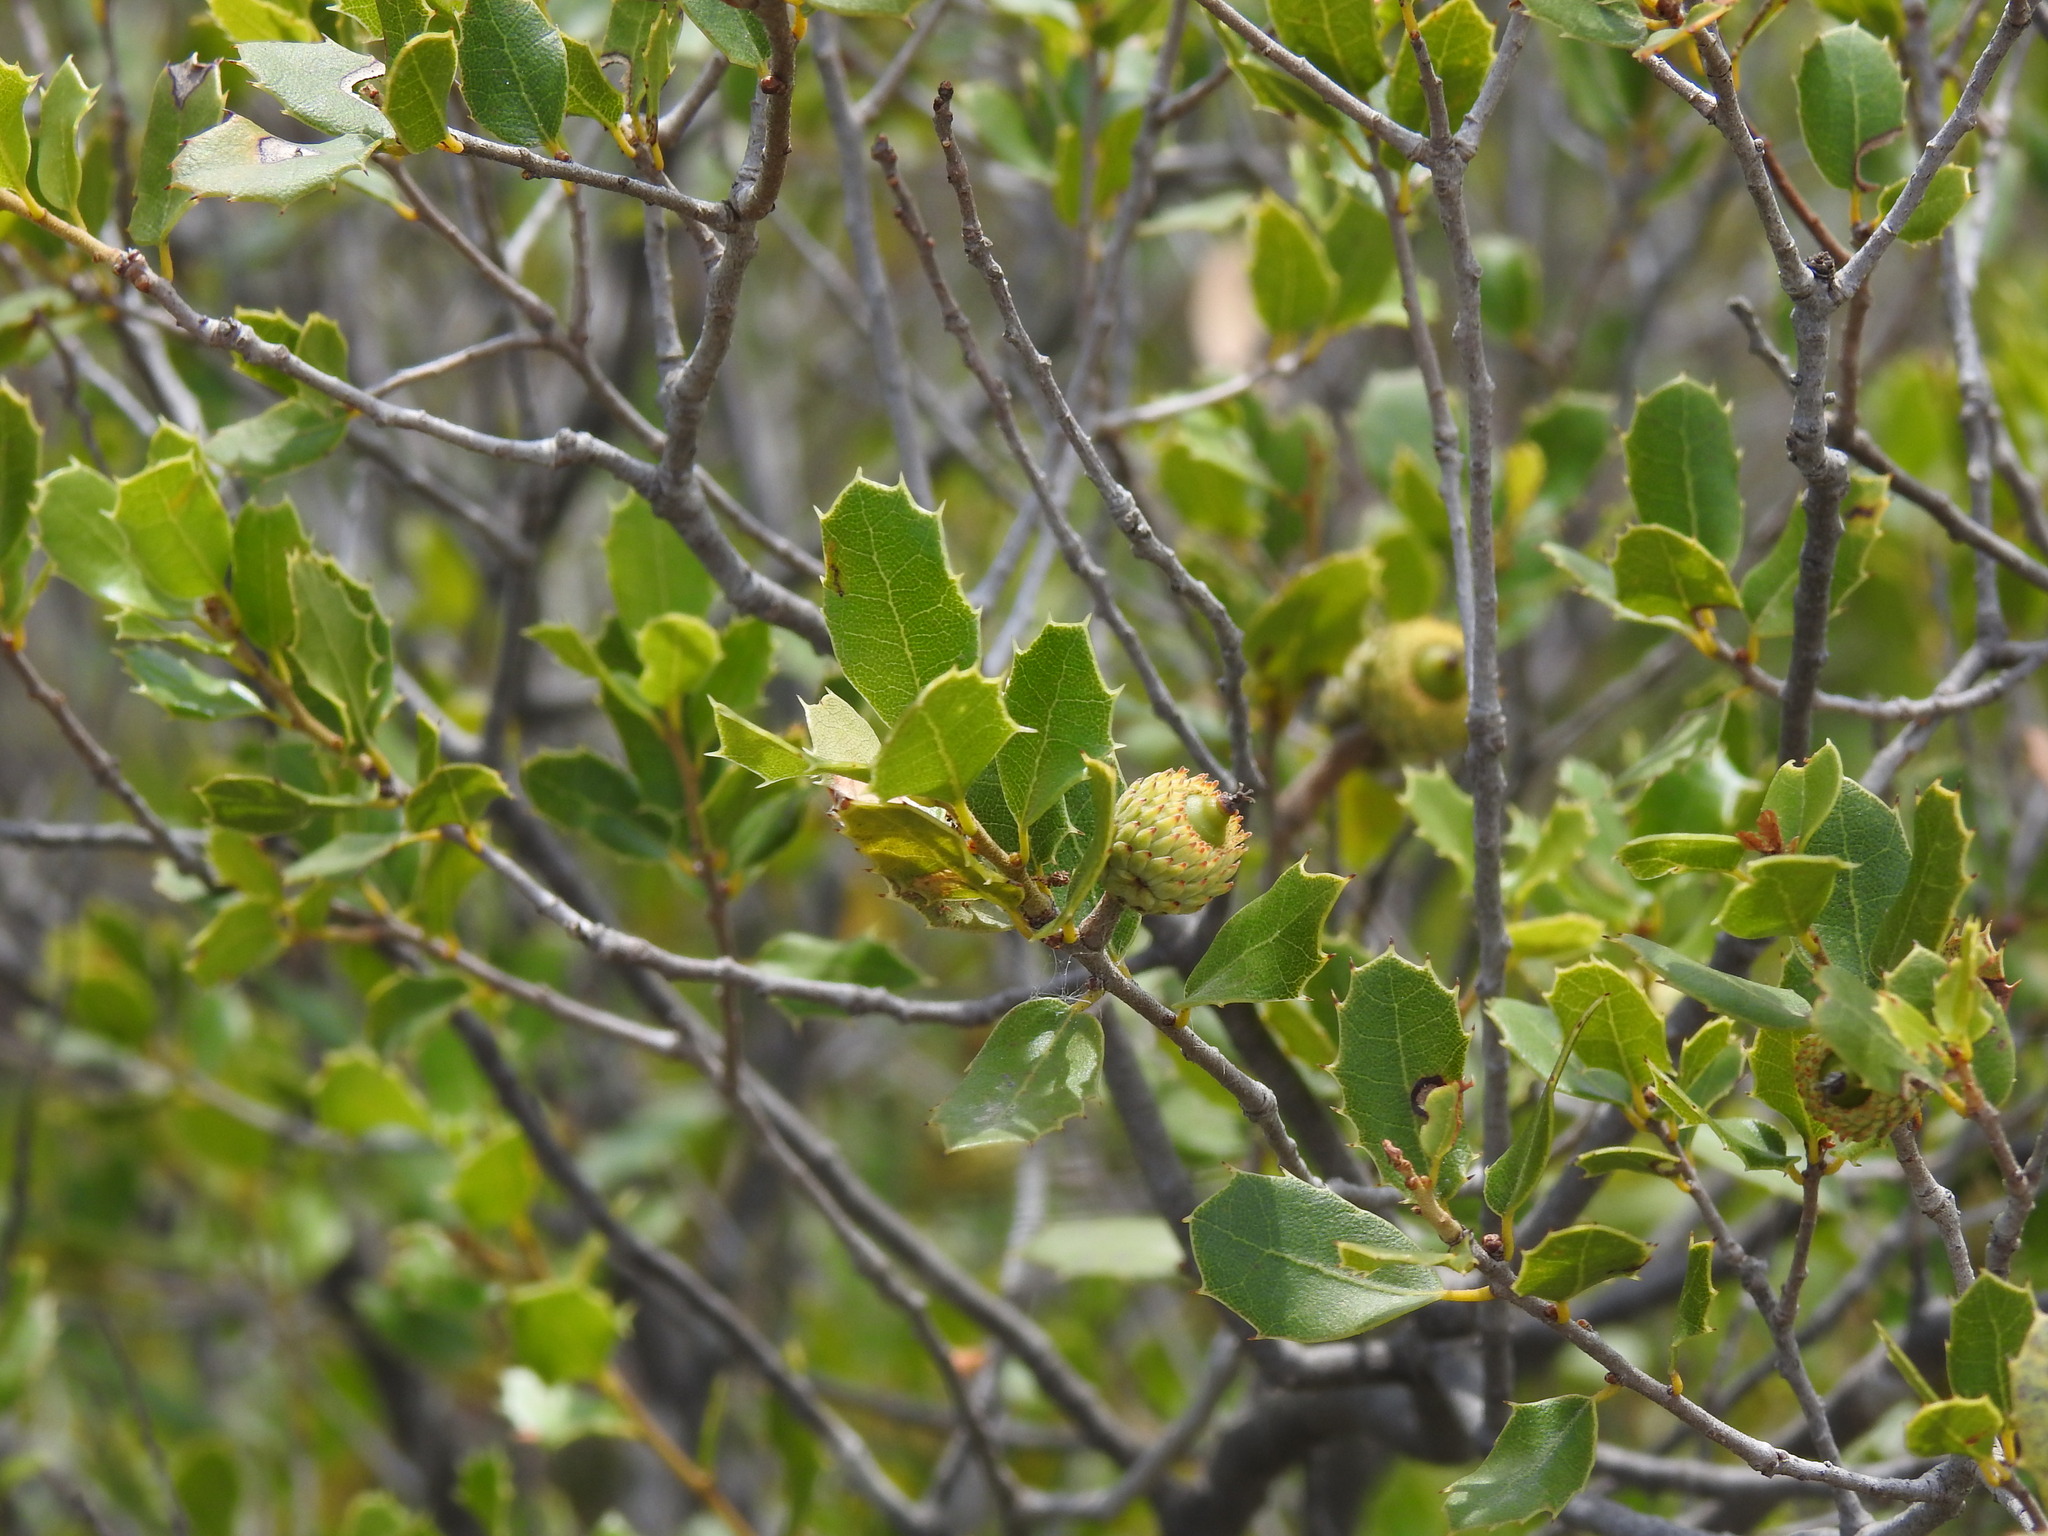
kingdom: Plantae
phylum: Tracheophyta
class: Magnoliopsida
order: Fagales
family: Fagaceae
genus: Quercus
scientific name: Quercus coccifera
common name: Kermes oak
